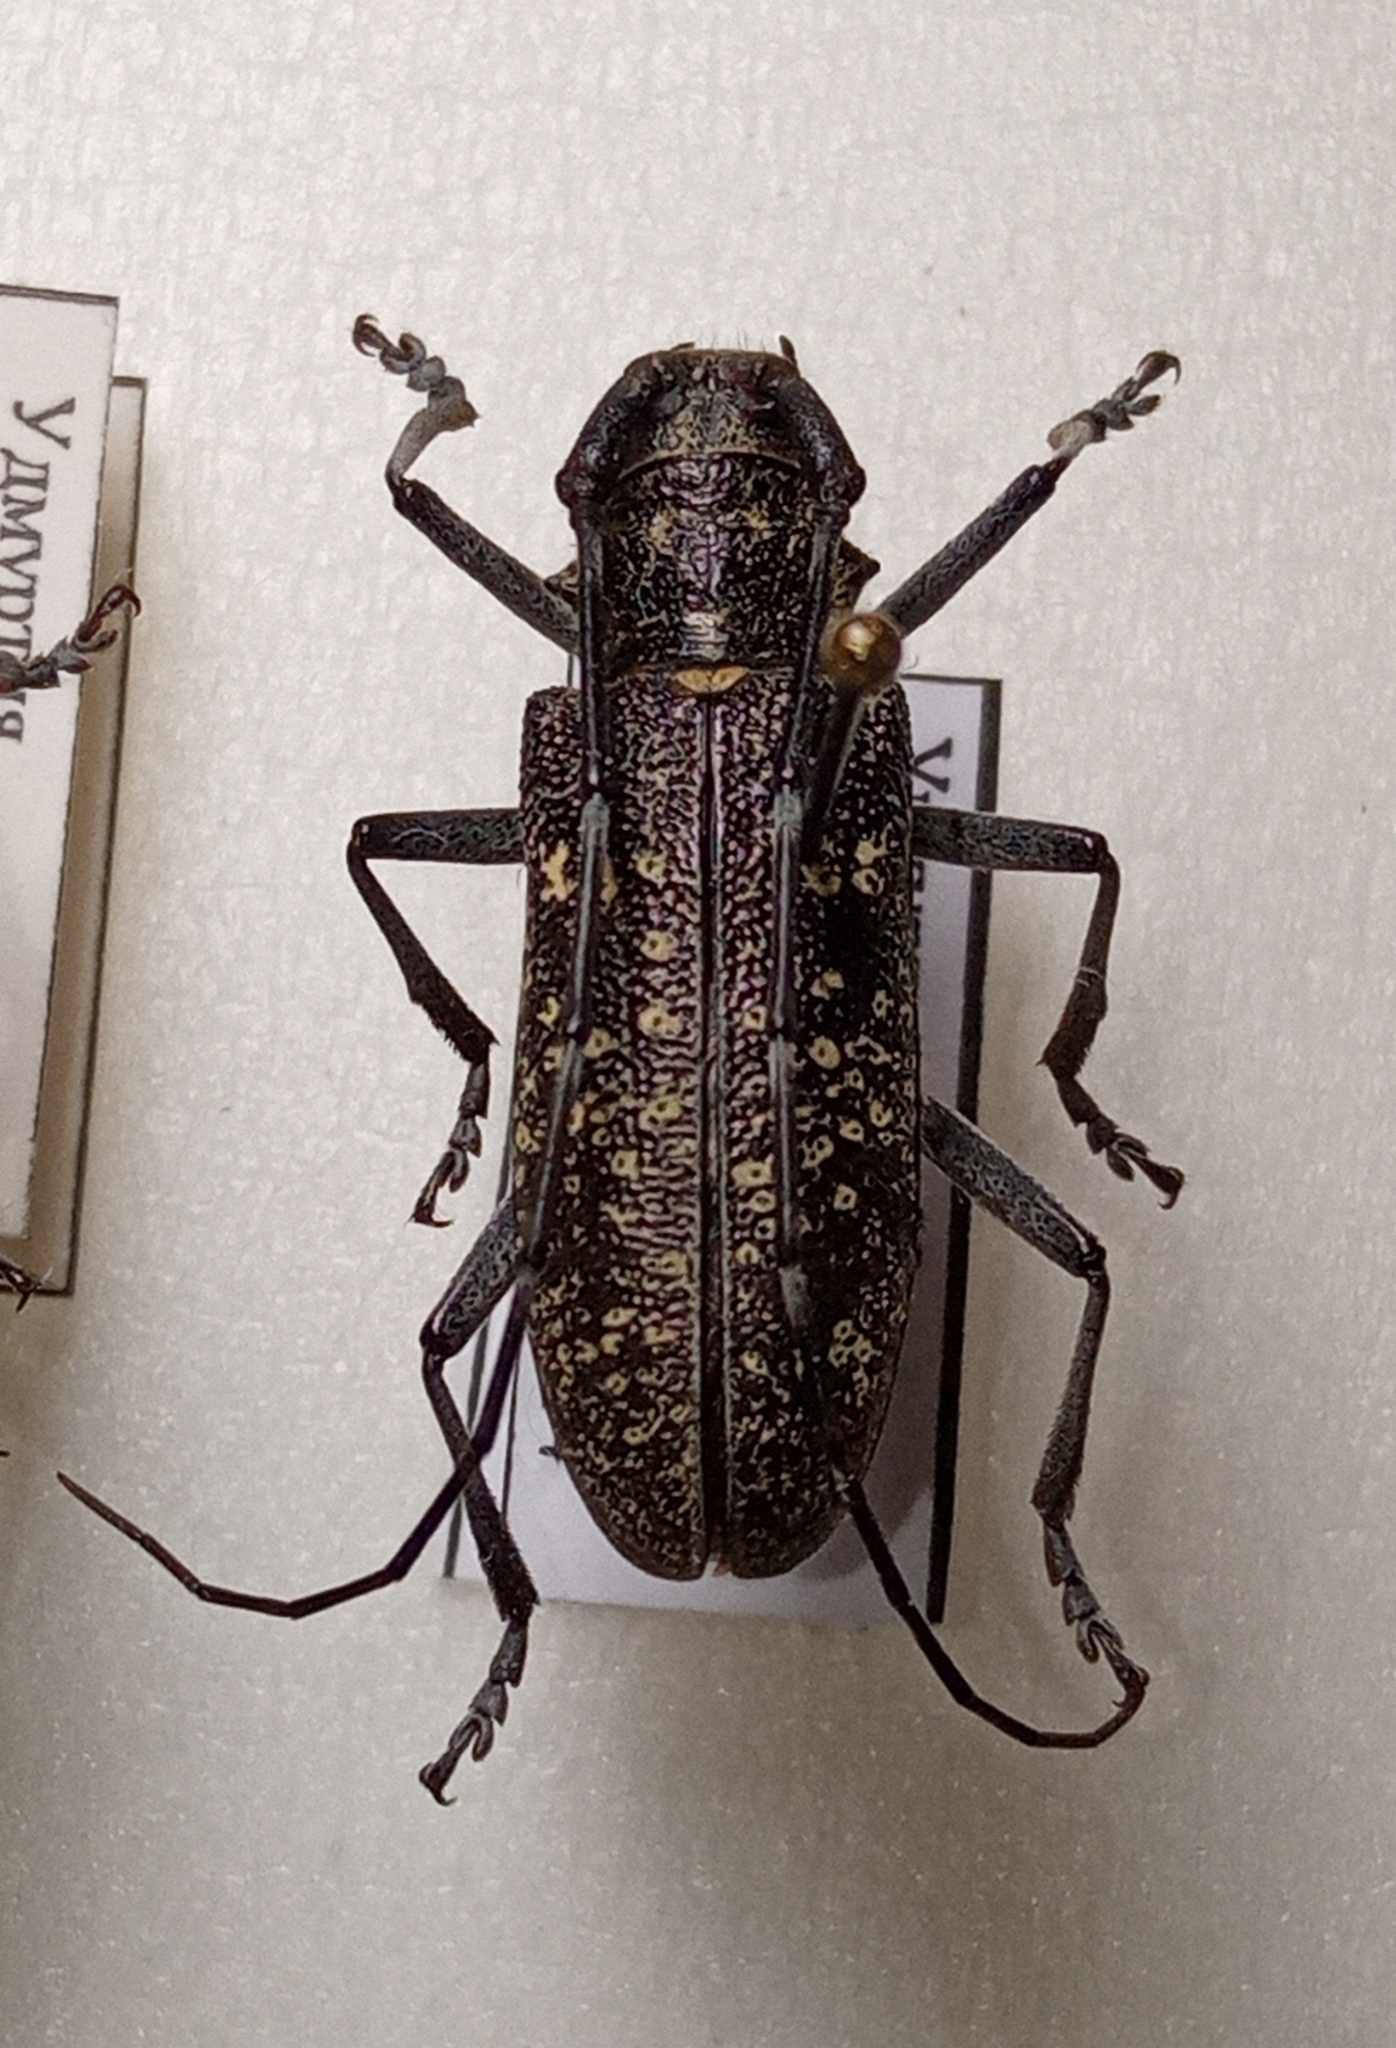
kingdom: Animalia
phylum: Arthropoda
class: Insecta
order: Coleoptera
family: Cerambycidae
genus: Monochamus
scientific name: Monochamus sutor
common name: Pine sawyer
